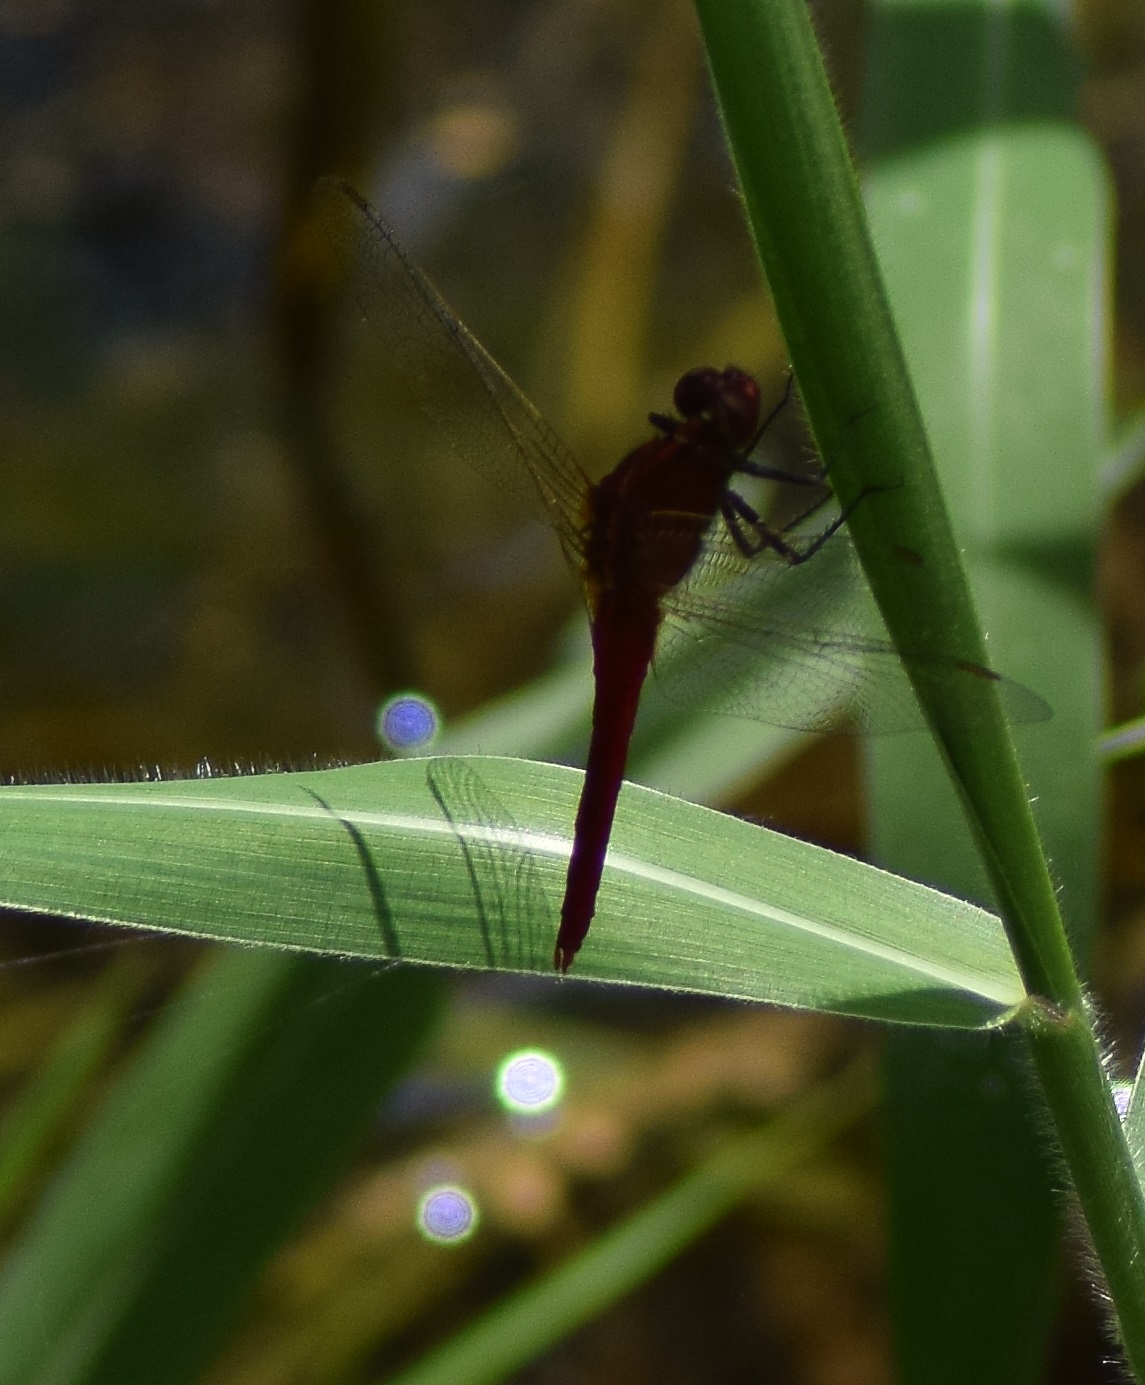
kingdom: Animalia
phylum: Arthropoda
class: Insecta
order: Odonata
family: Libellulidae
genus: Rhodothemis
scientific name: Rhodothemis rufa
